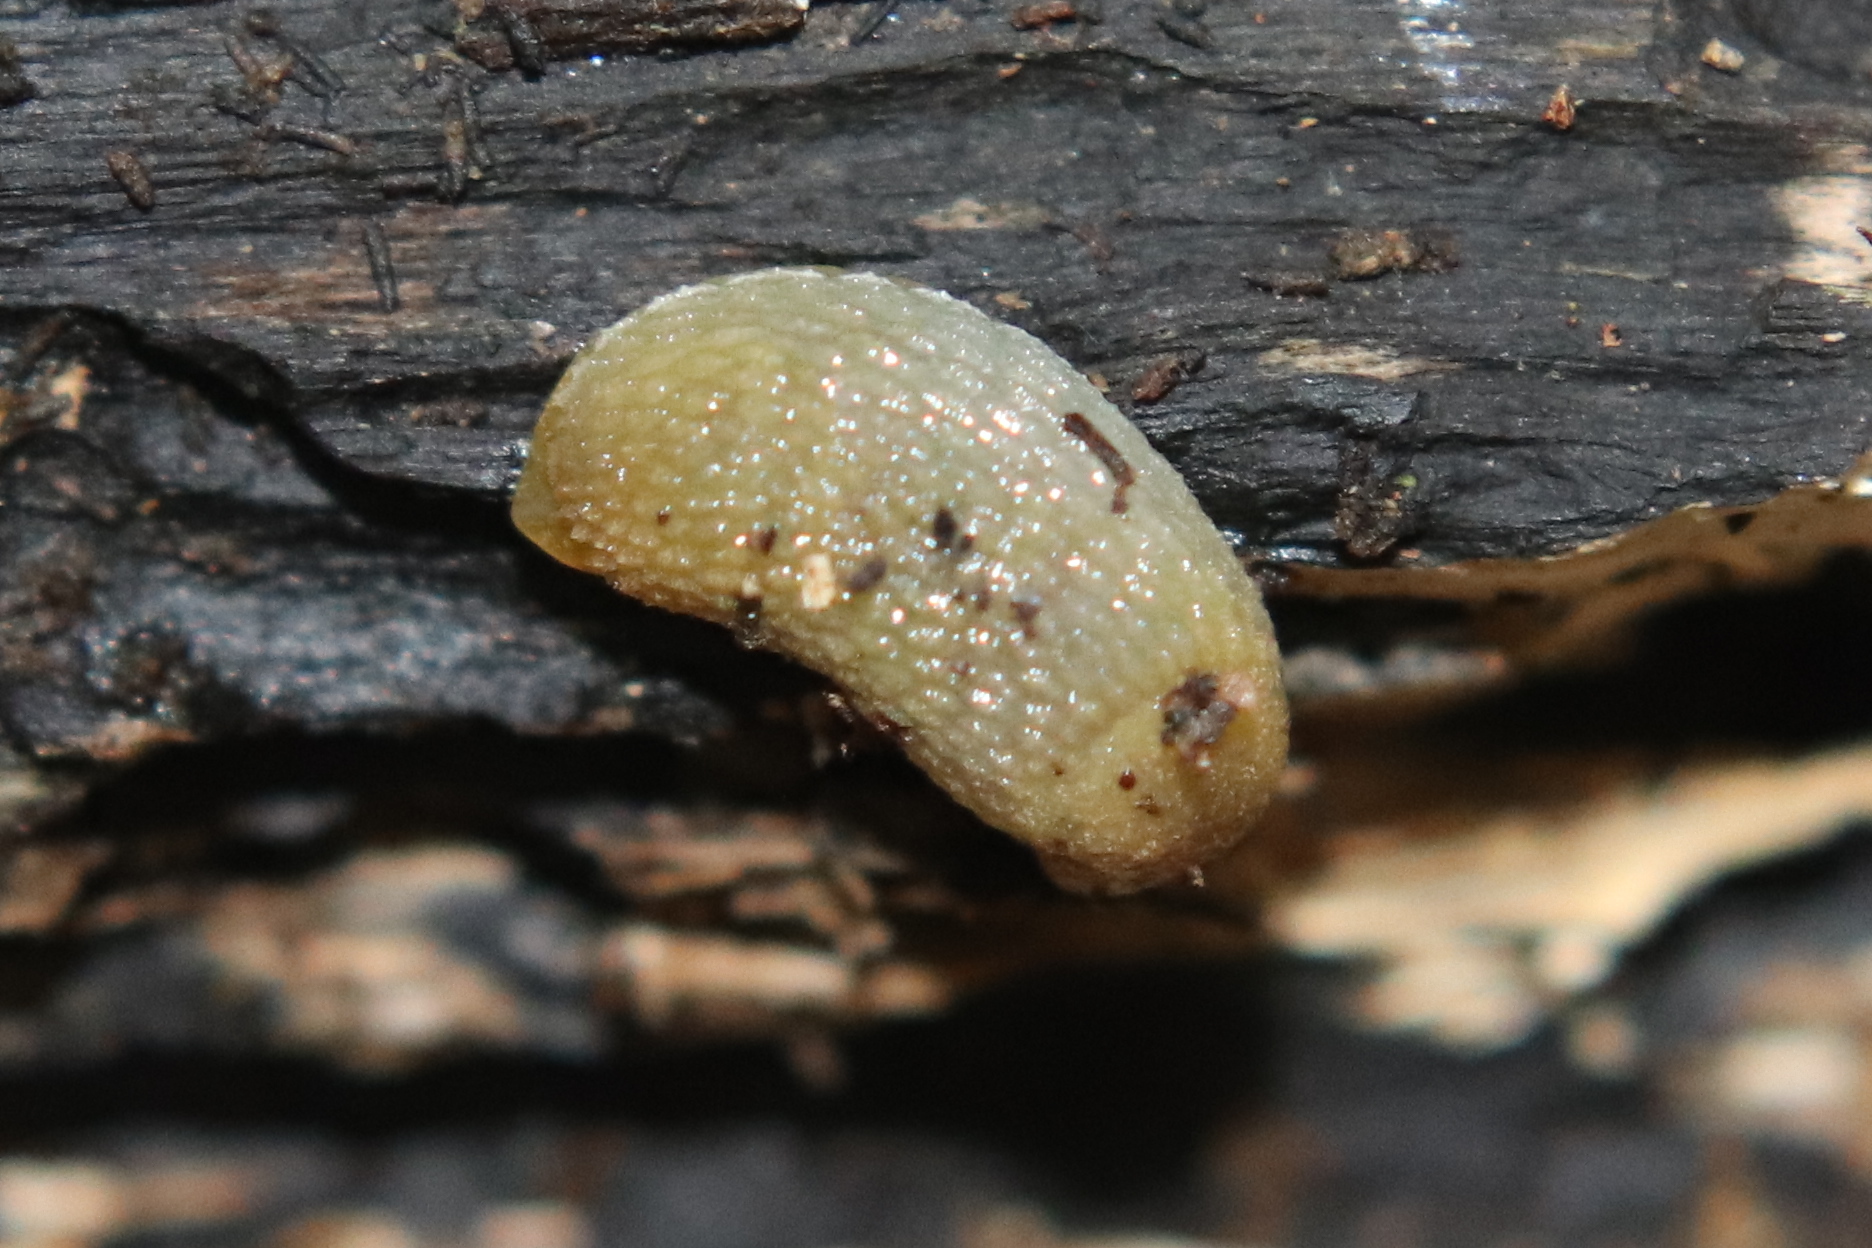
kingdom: Animalia
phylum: Mollusca
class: Gastropoda
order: Stylommatophora
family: Arionidae
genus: Arion
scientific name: Arion intermedius
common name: Hedgehog slug
